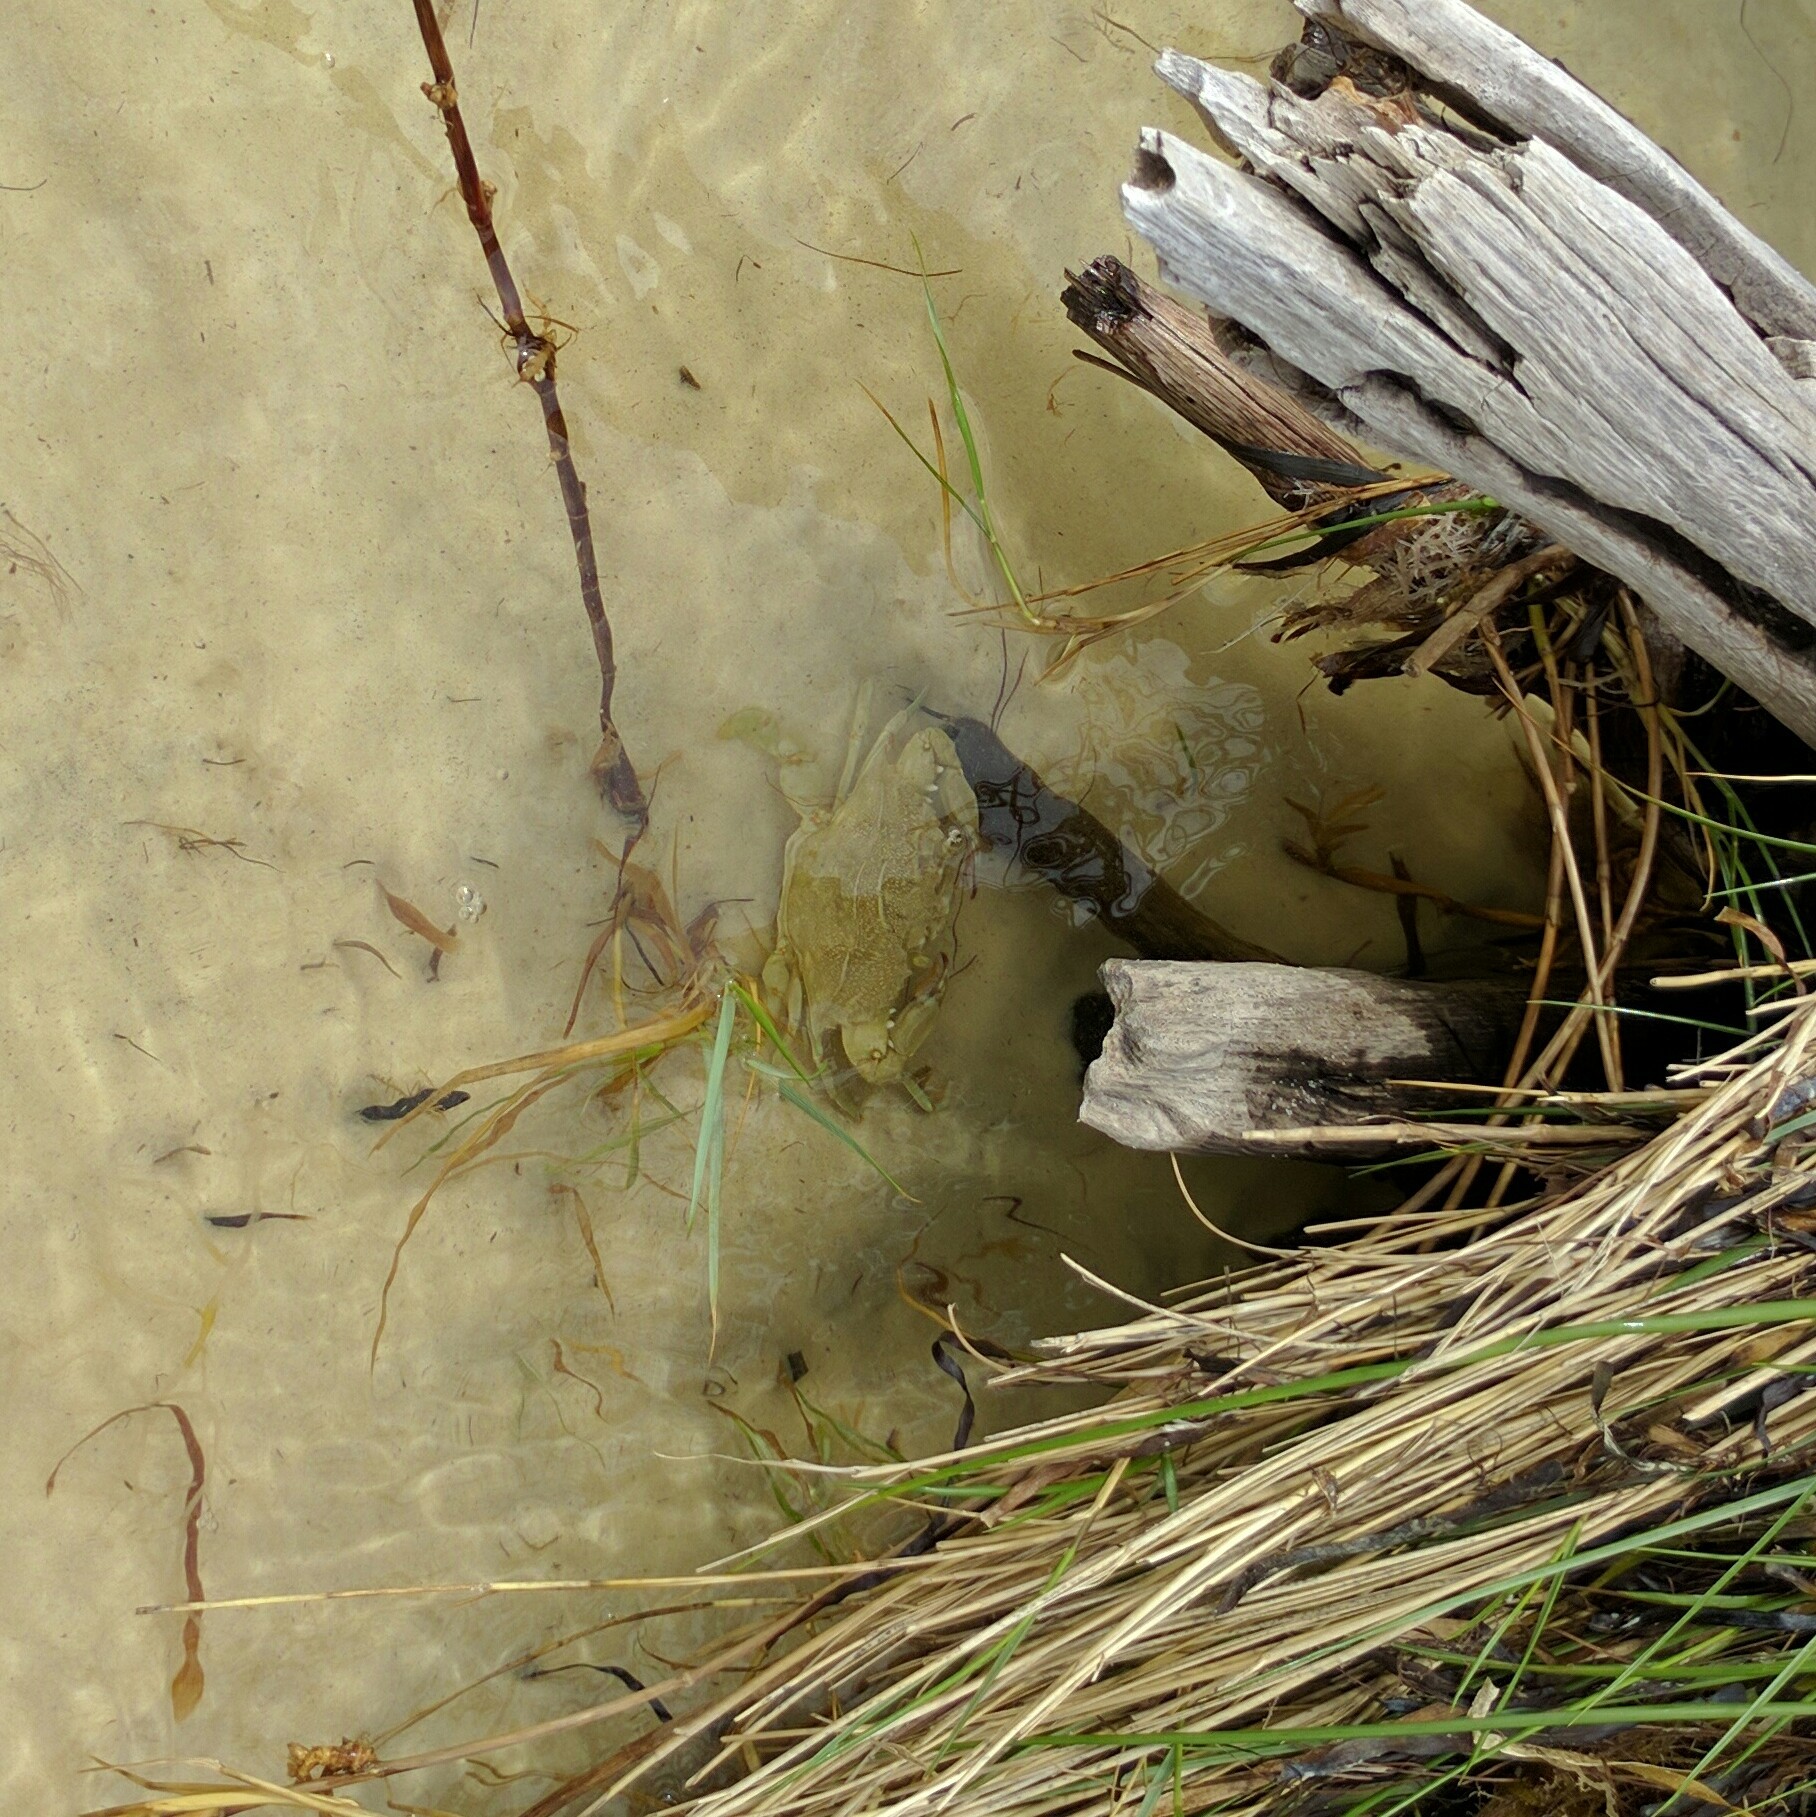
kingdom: Animalia
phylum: Arthropoda
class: Malacostraca
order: Decapoda
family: Portunidae
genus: Callinectes
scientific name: Callinectes sapidus
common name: Blue crab
